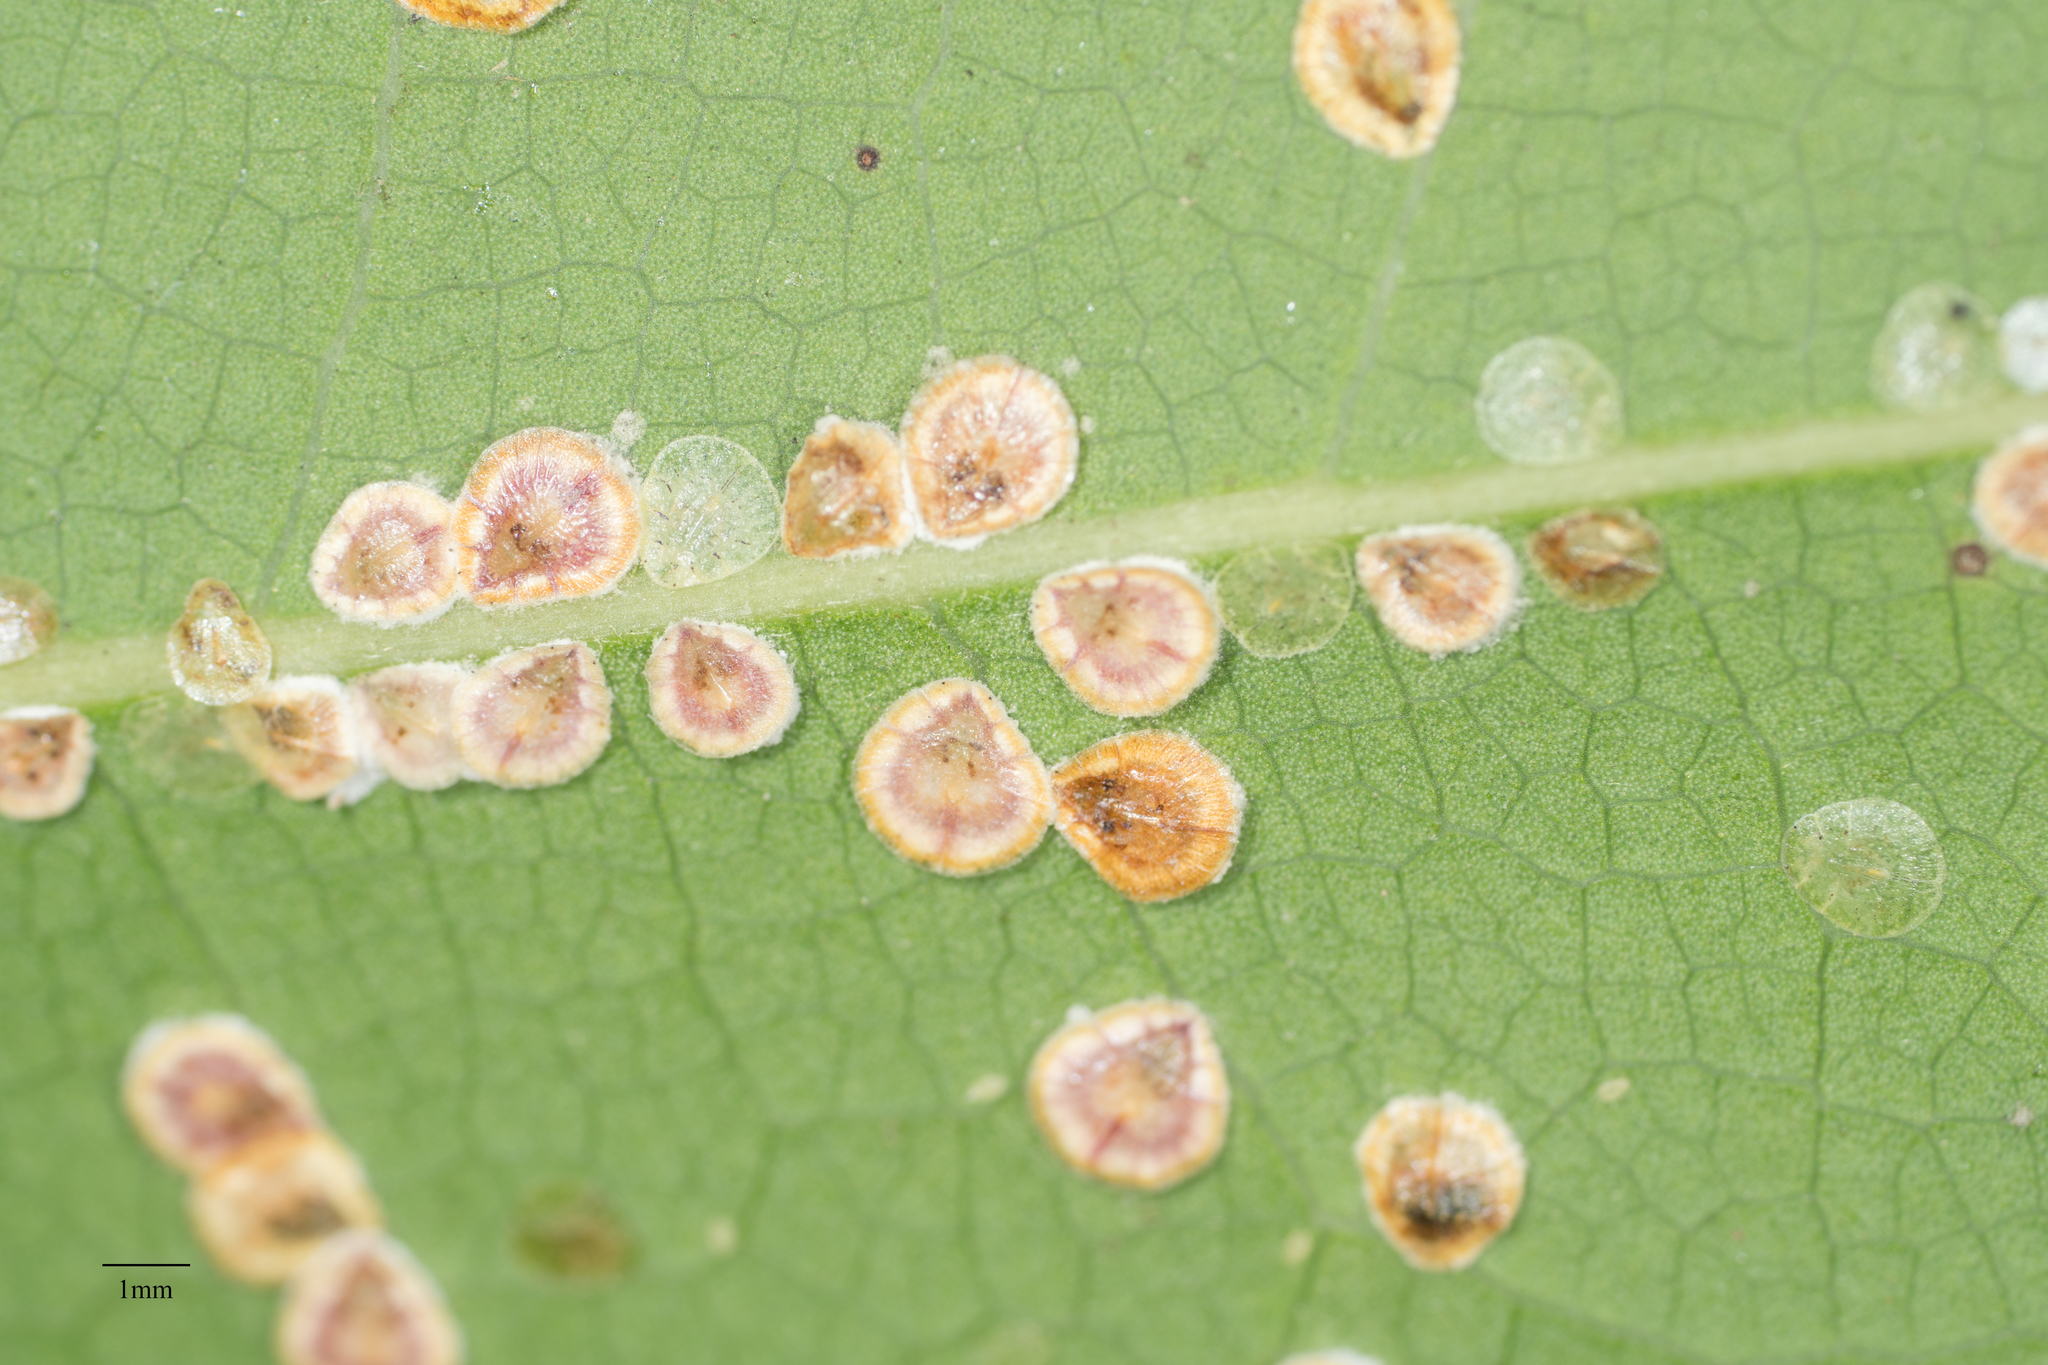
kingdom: Animalia
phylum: Arthropoda
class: Insecta
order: Hemiptera
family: Coccidae
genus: Protopulvinaria
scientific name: Protopulvinaria pyriformis
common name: Pyriform scale
